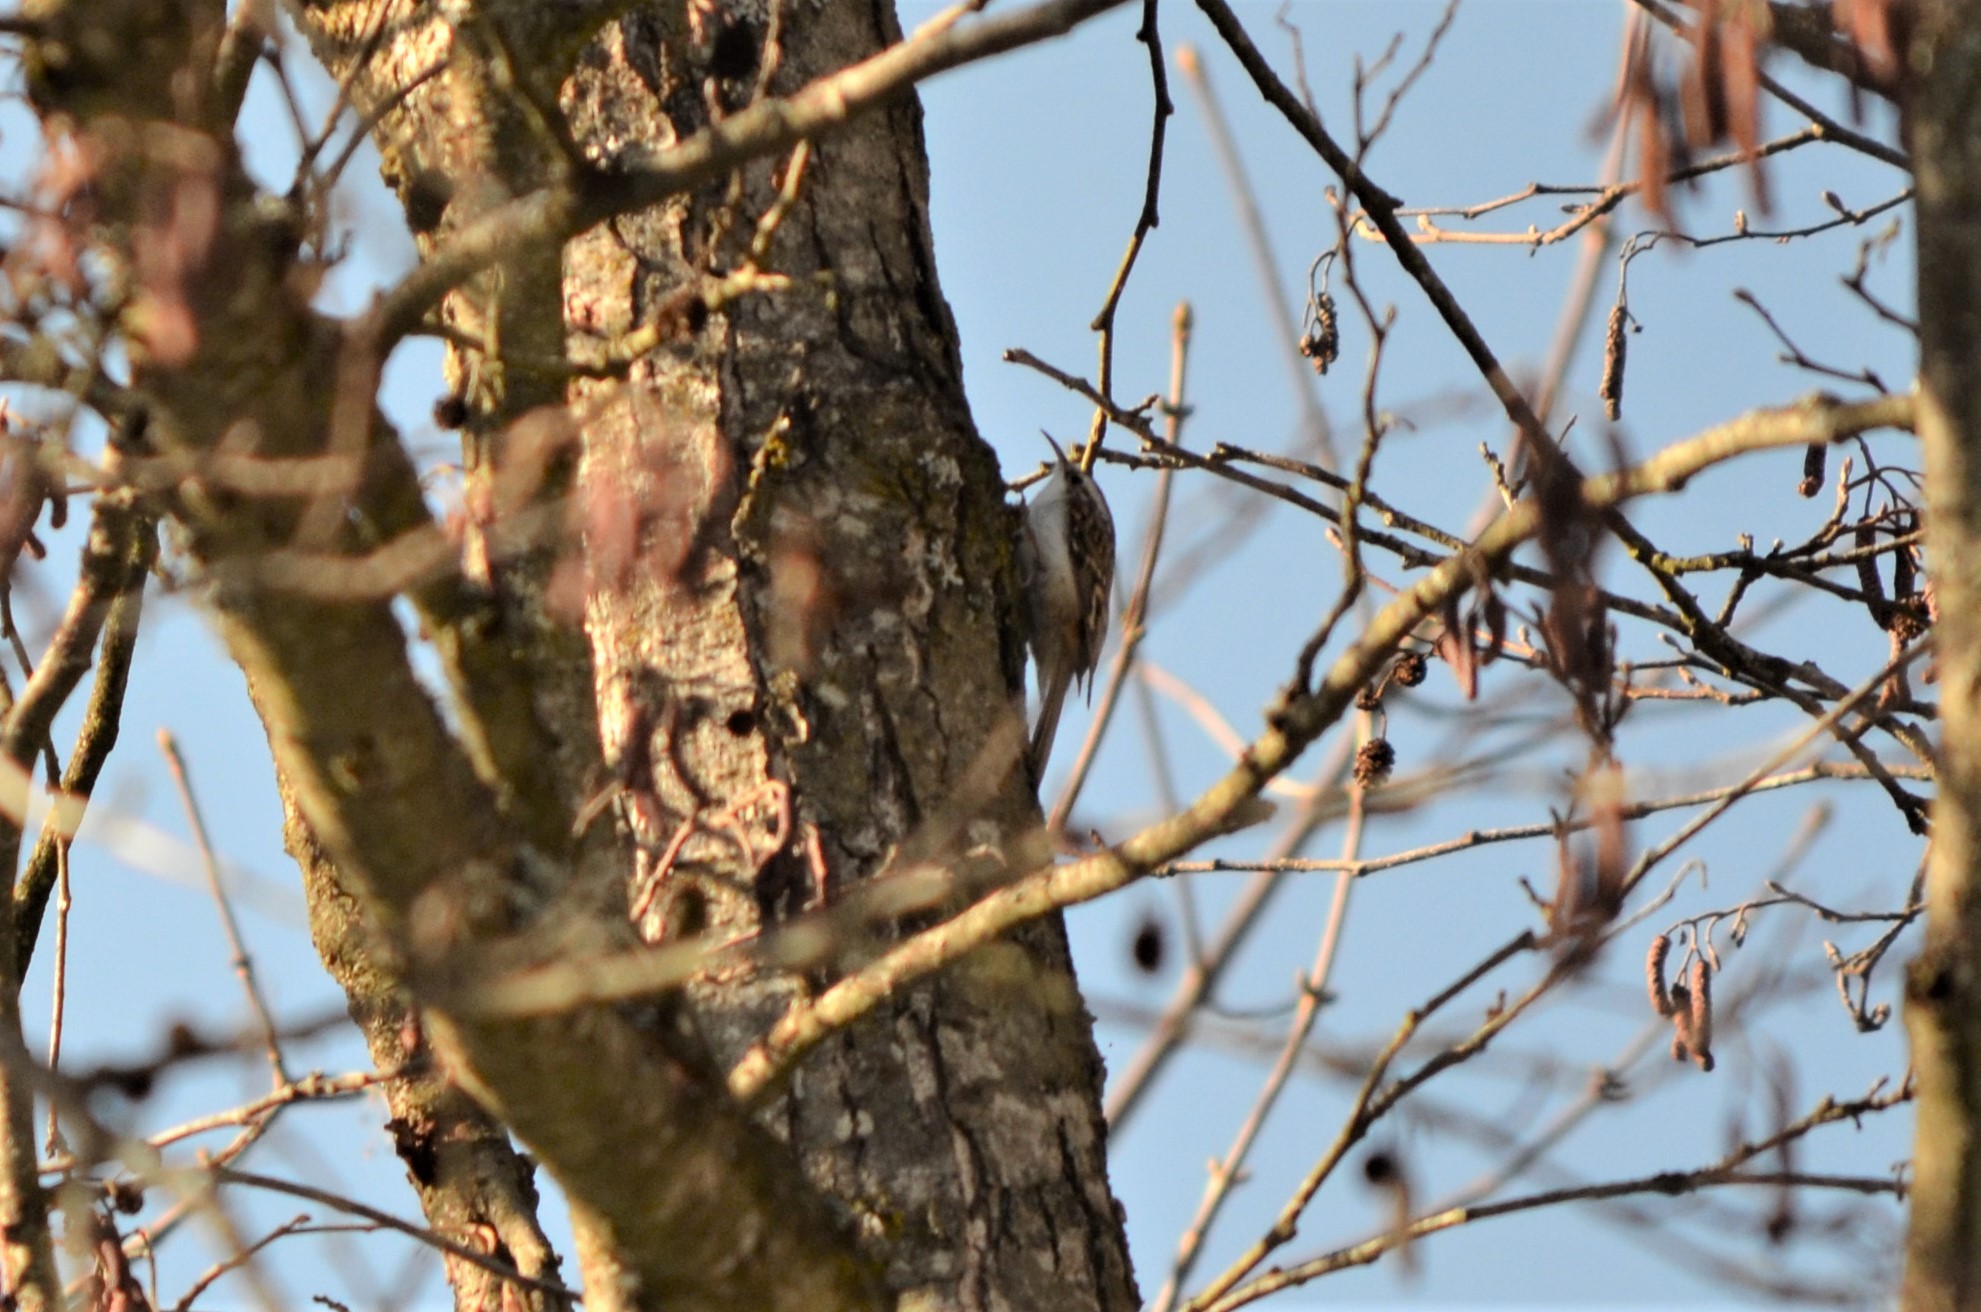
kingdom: Animalia
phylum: Chordata
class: Aves
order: Passeriformes
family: Certhiidae
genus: Certhia
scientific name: Certhia familiaris
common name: Eurasian treecreeper
